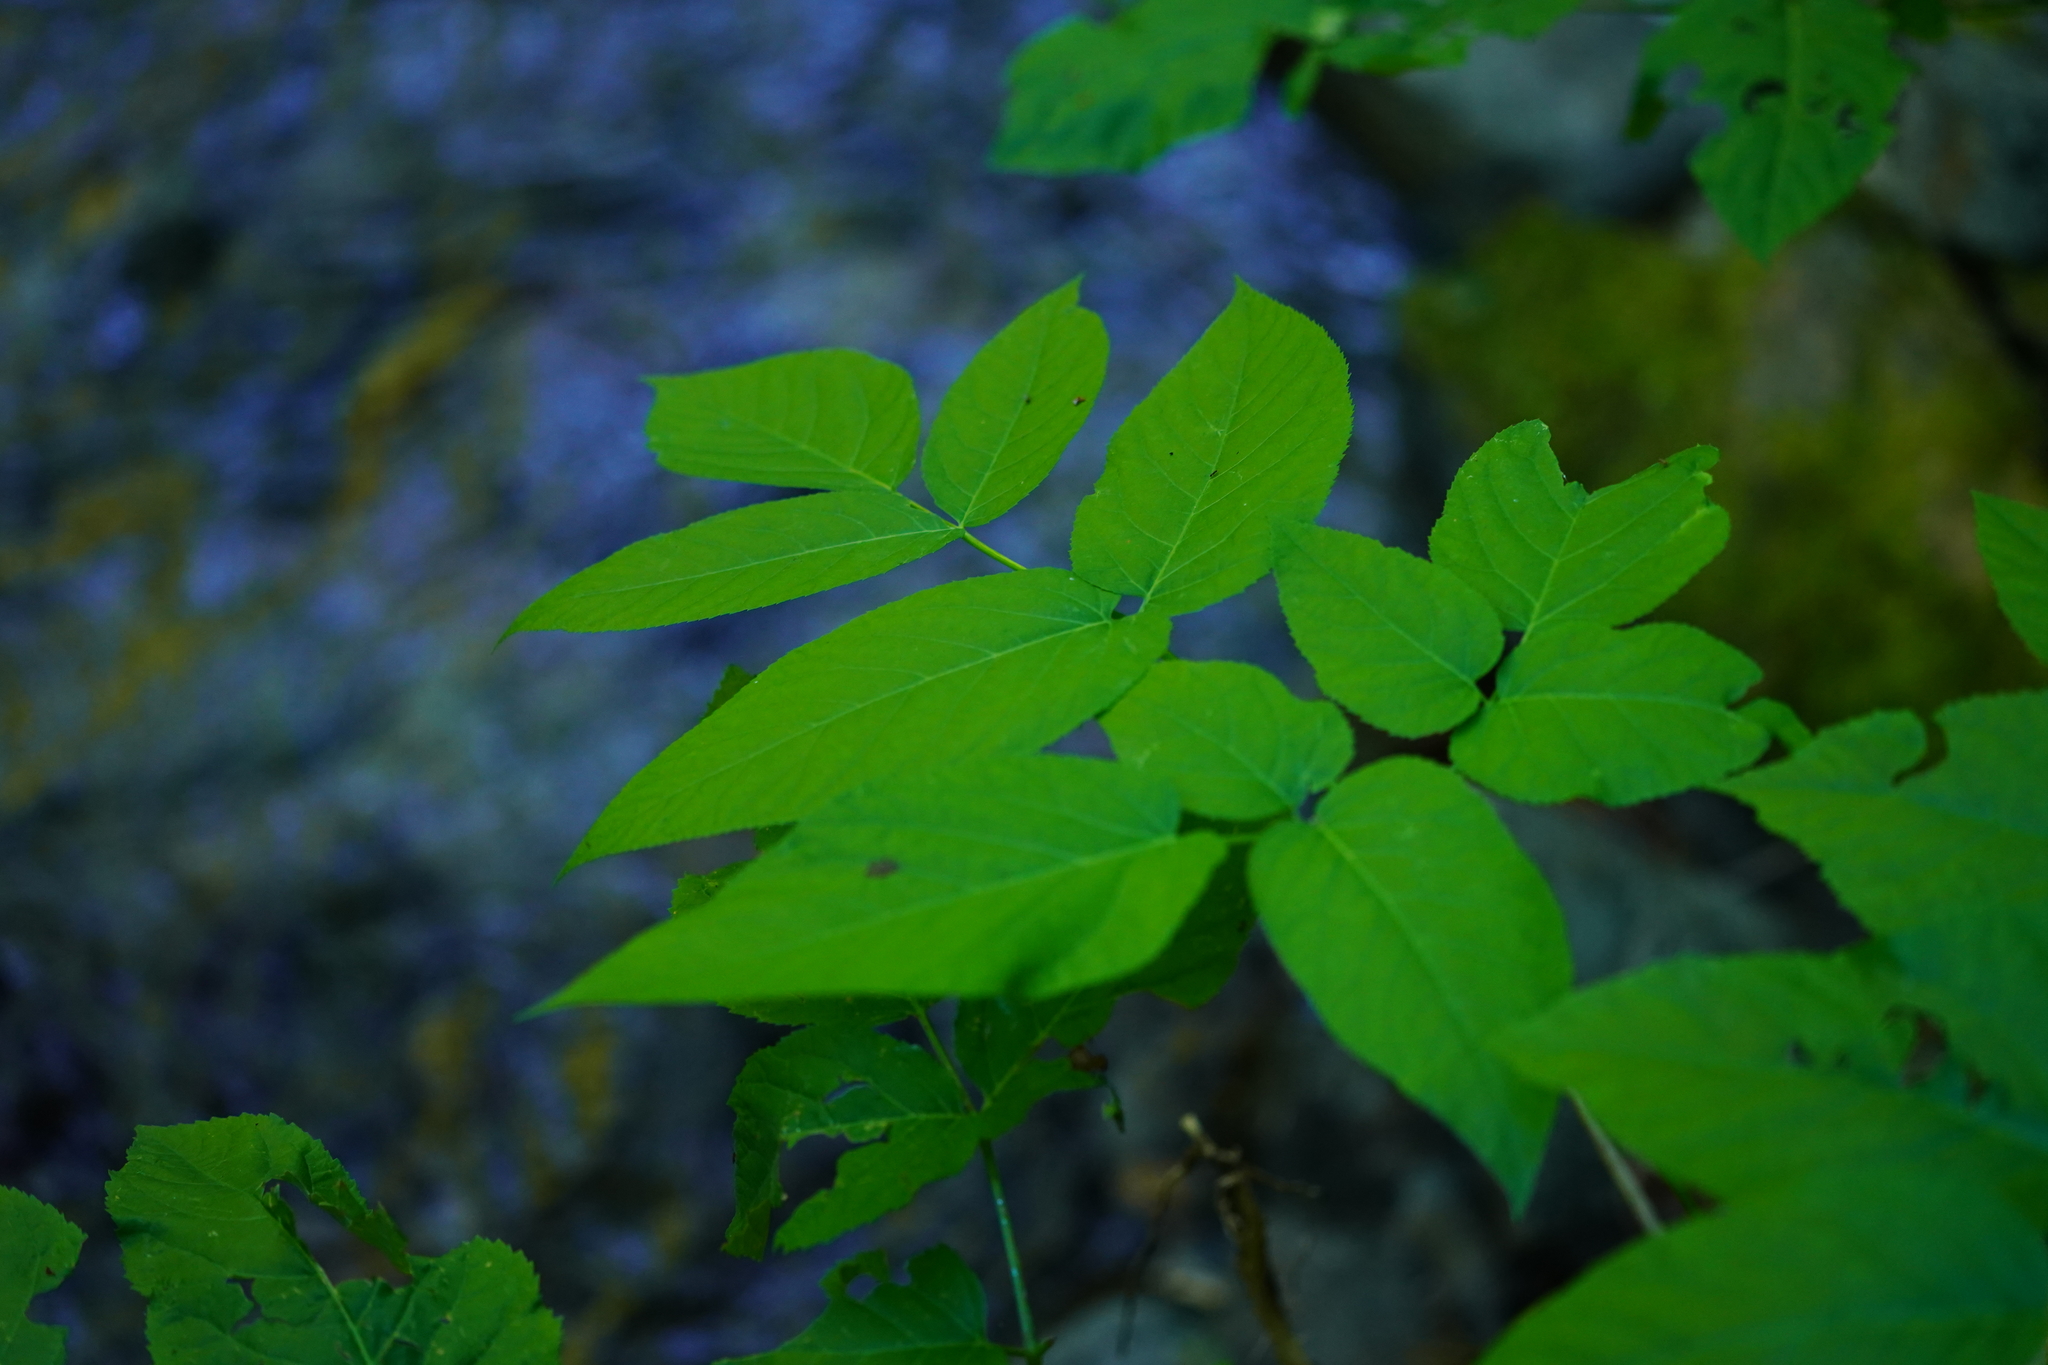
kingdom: Plantae
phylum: Tracheophyta
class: Magnoliopsida
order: Apiales
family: Araliaceae
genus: Aralia
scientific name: Aralia californica
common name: California-ginseng
